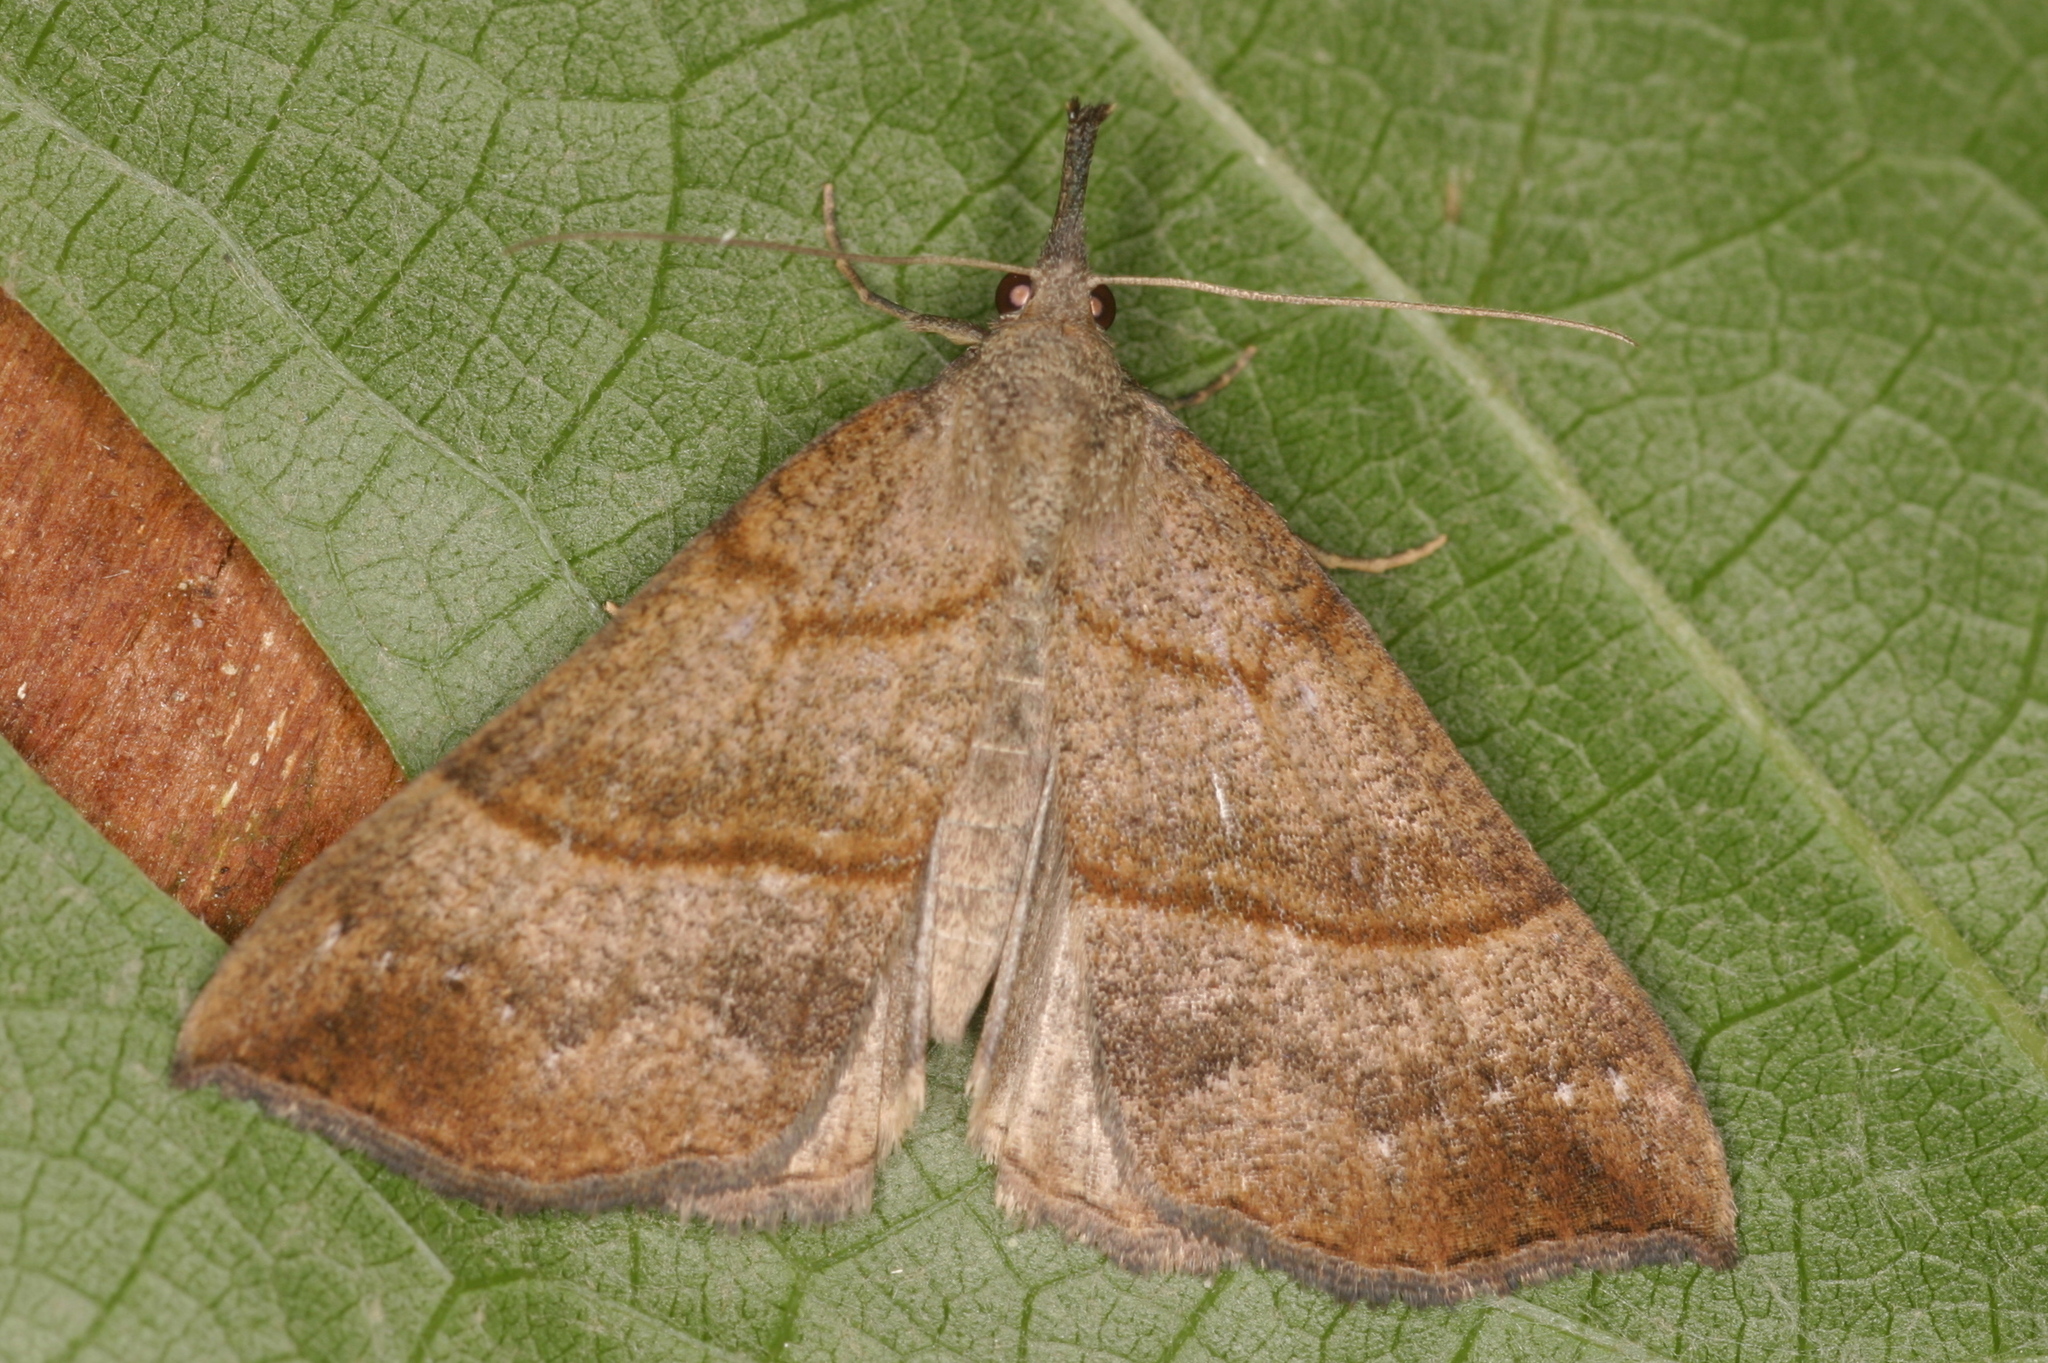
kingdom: Animalia
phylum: Arthropoda
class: Insecta
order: Lepidoptera
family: Erebidae
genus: Hypena
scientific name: Hypena proboscidalis
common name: Snout
